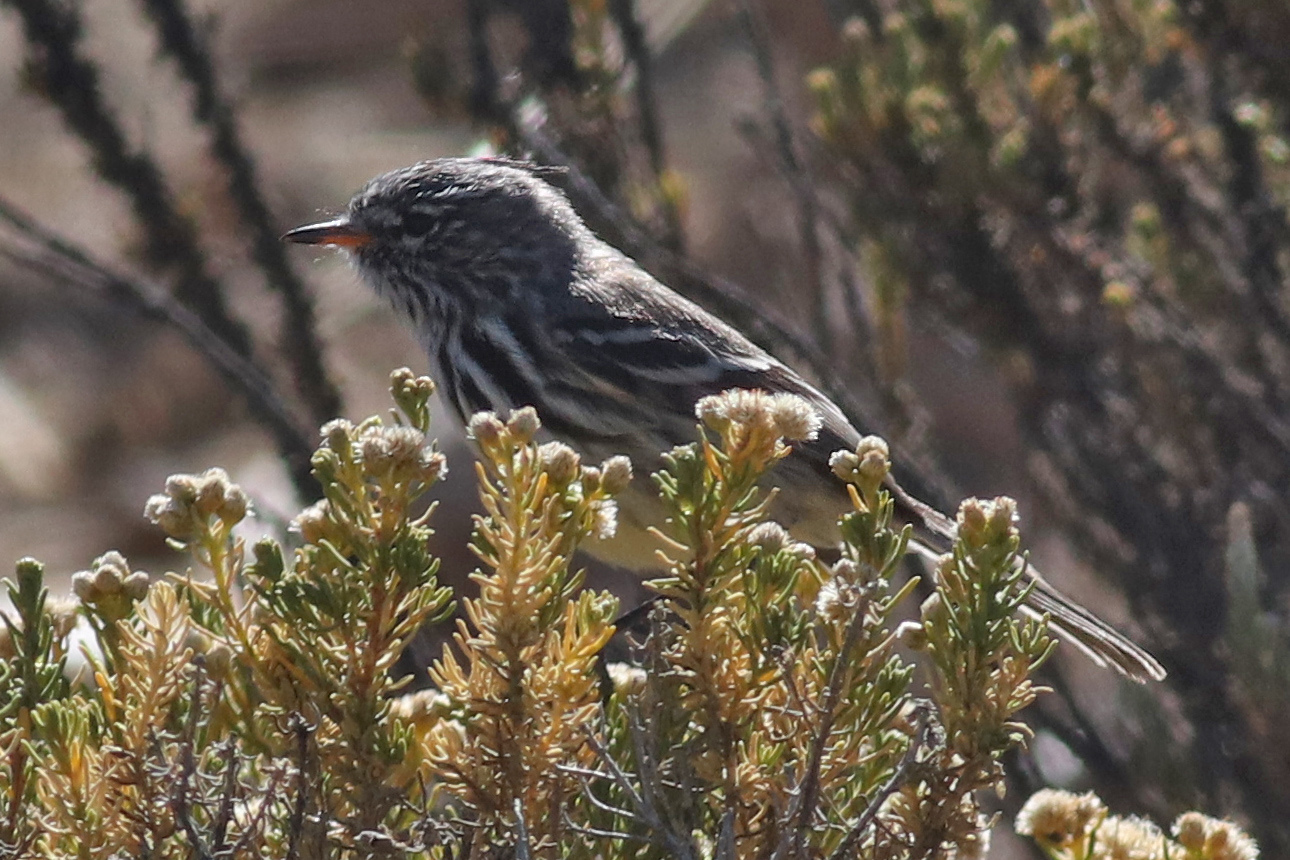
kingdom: Animalia
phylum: Chordata
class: Aves
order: Passeriformes
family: Tyrannidae
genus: Anairetes
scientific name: Anairetes flavirostris
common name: Yellow-billed tit-tyrant
